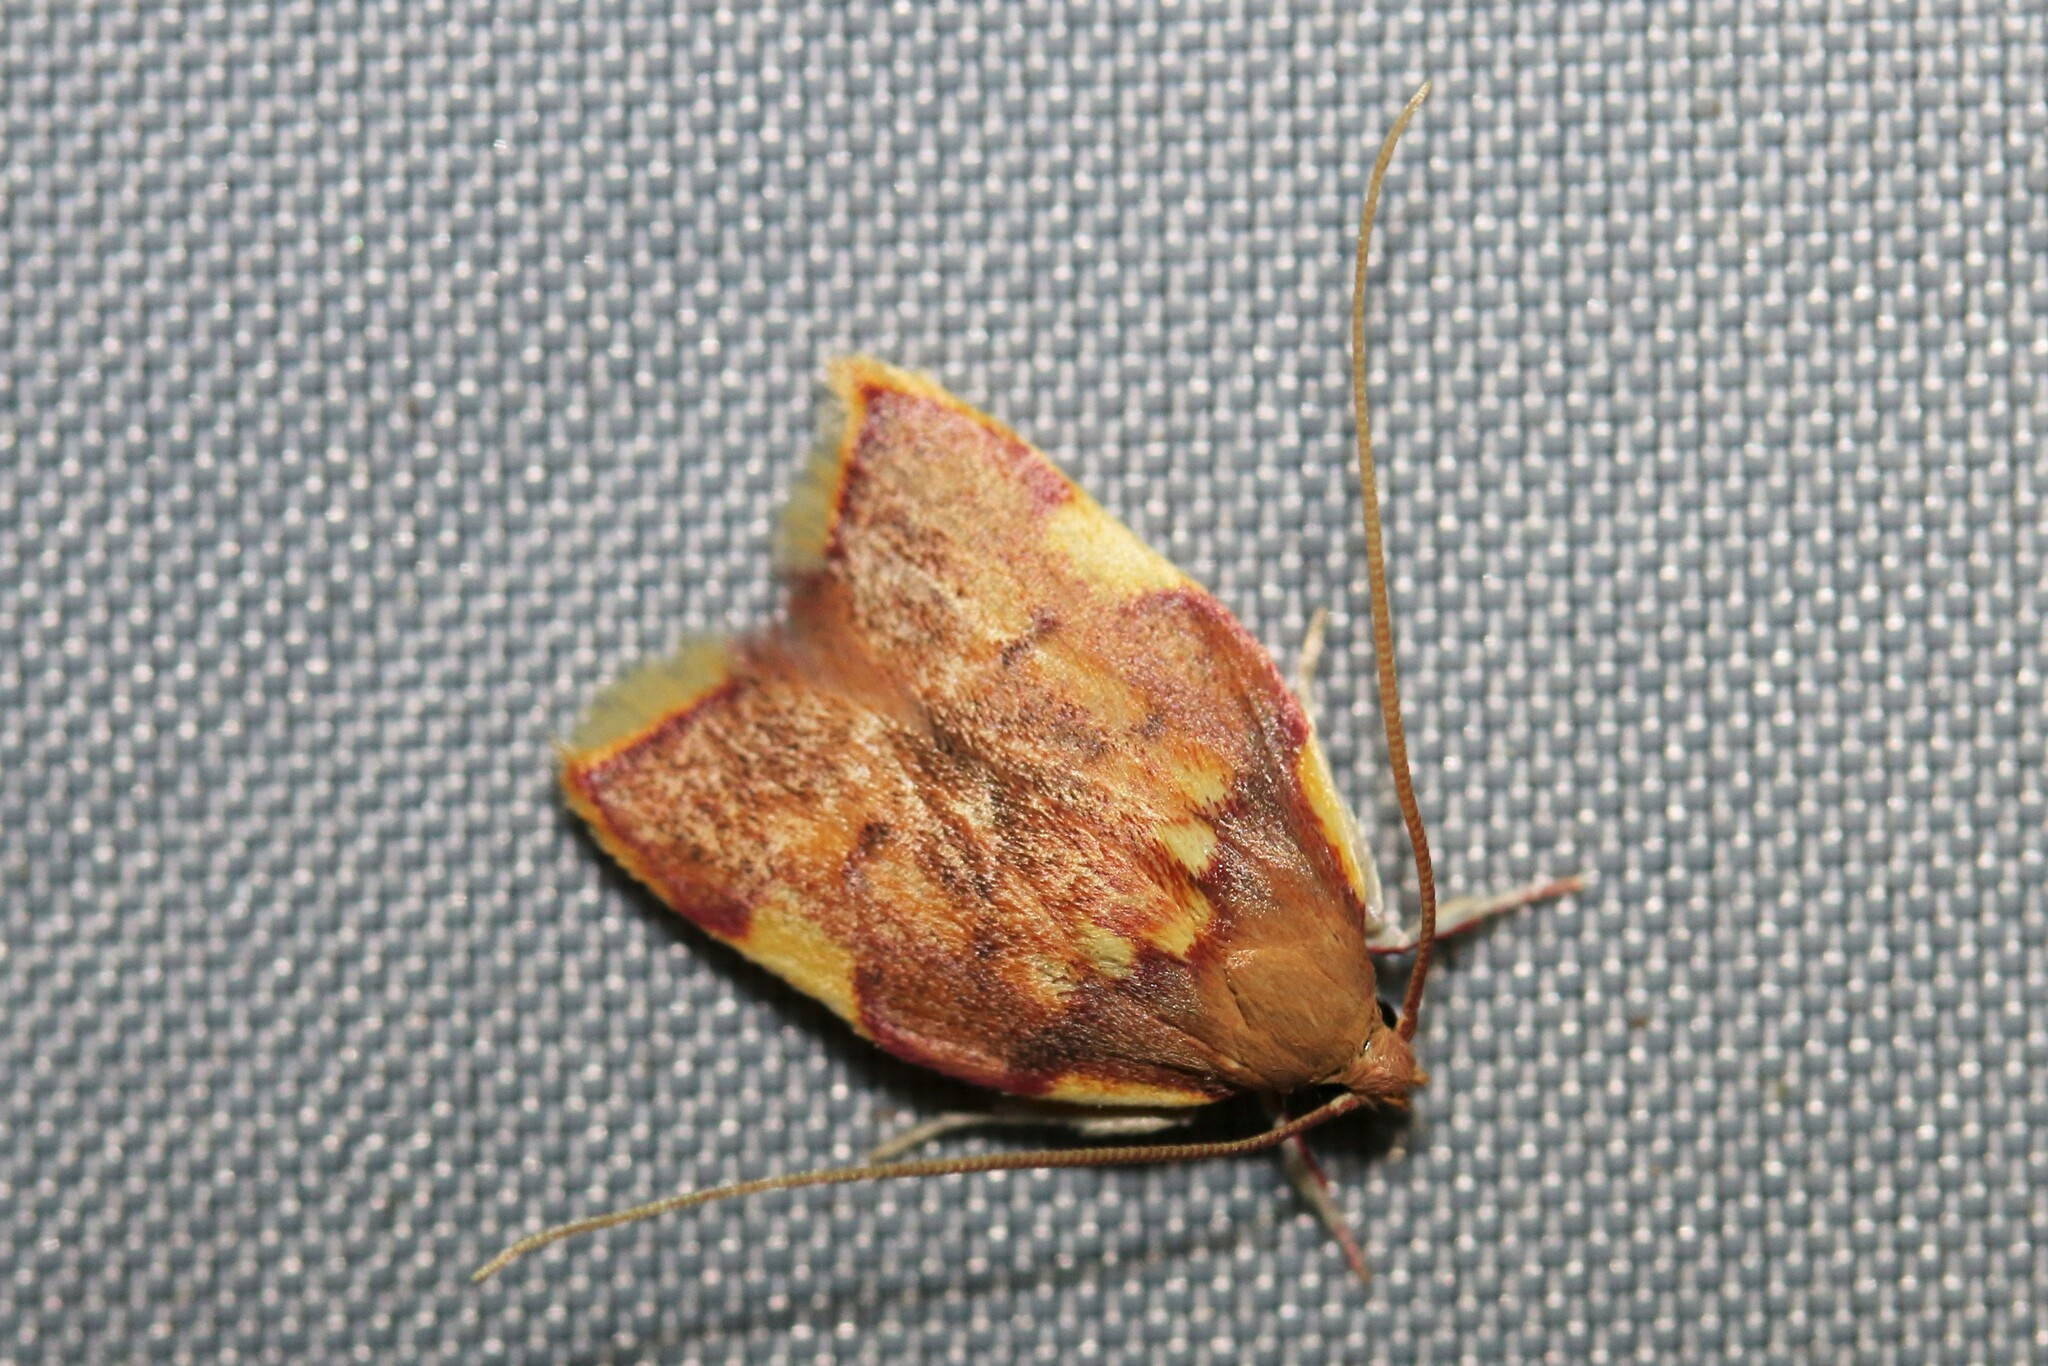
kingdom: Animalia
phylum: Arthropoda
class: Insecta
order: Lepidoptera
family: Peleopodidae
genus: Carcina
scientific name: Carcina quercana
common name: Moth
